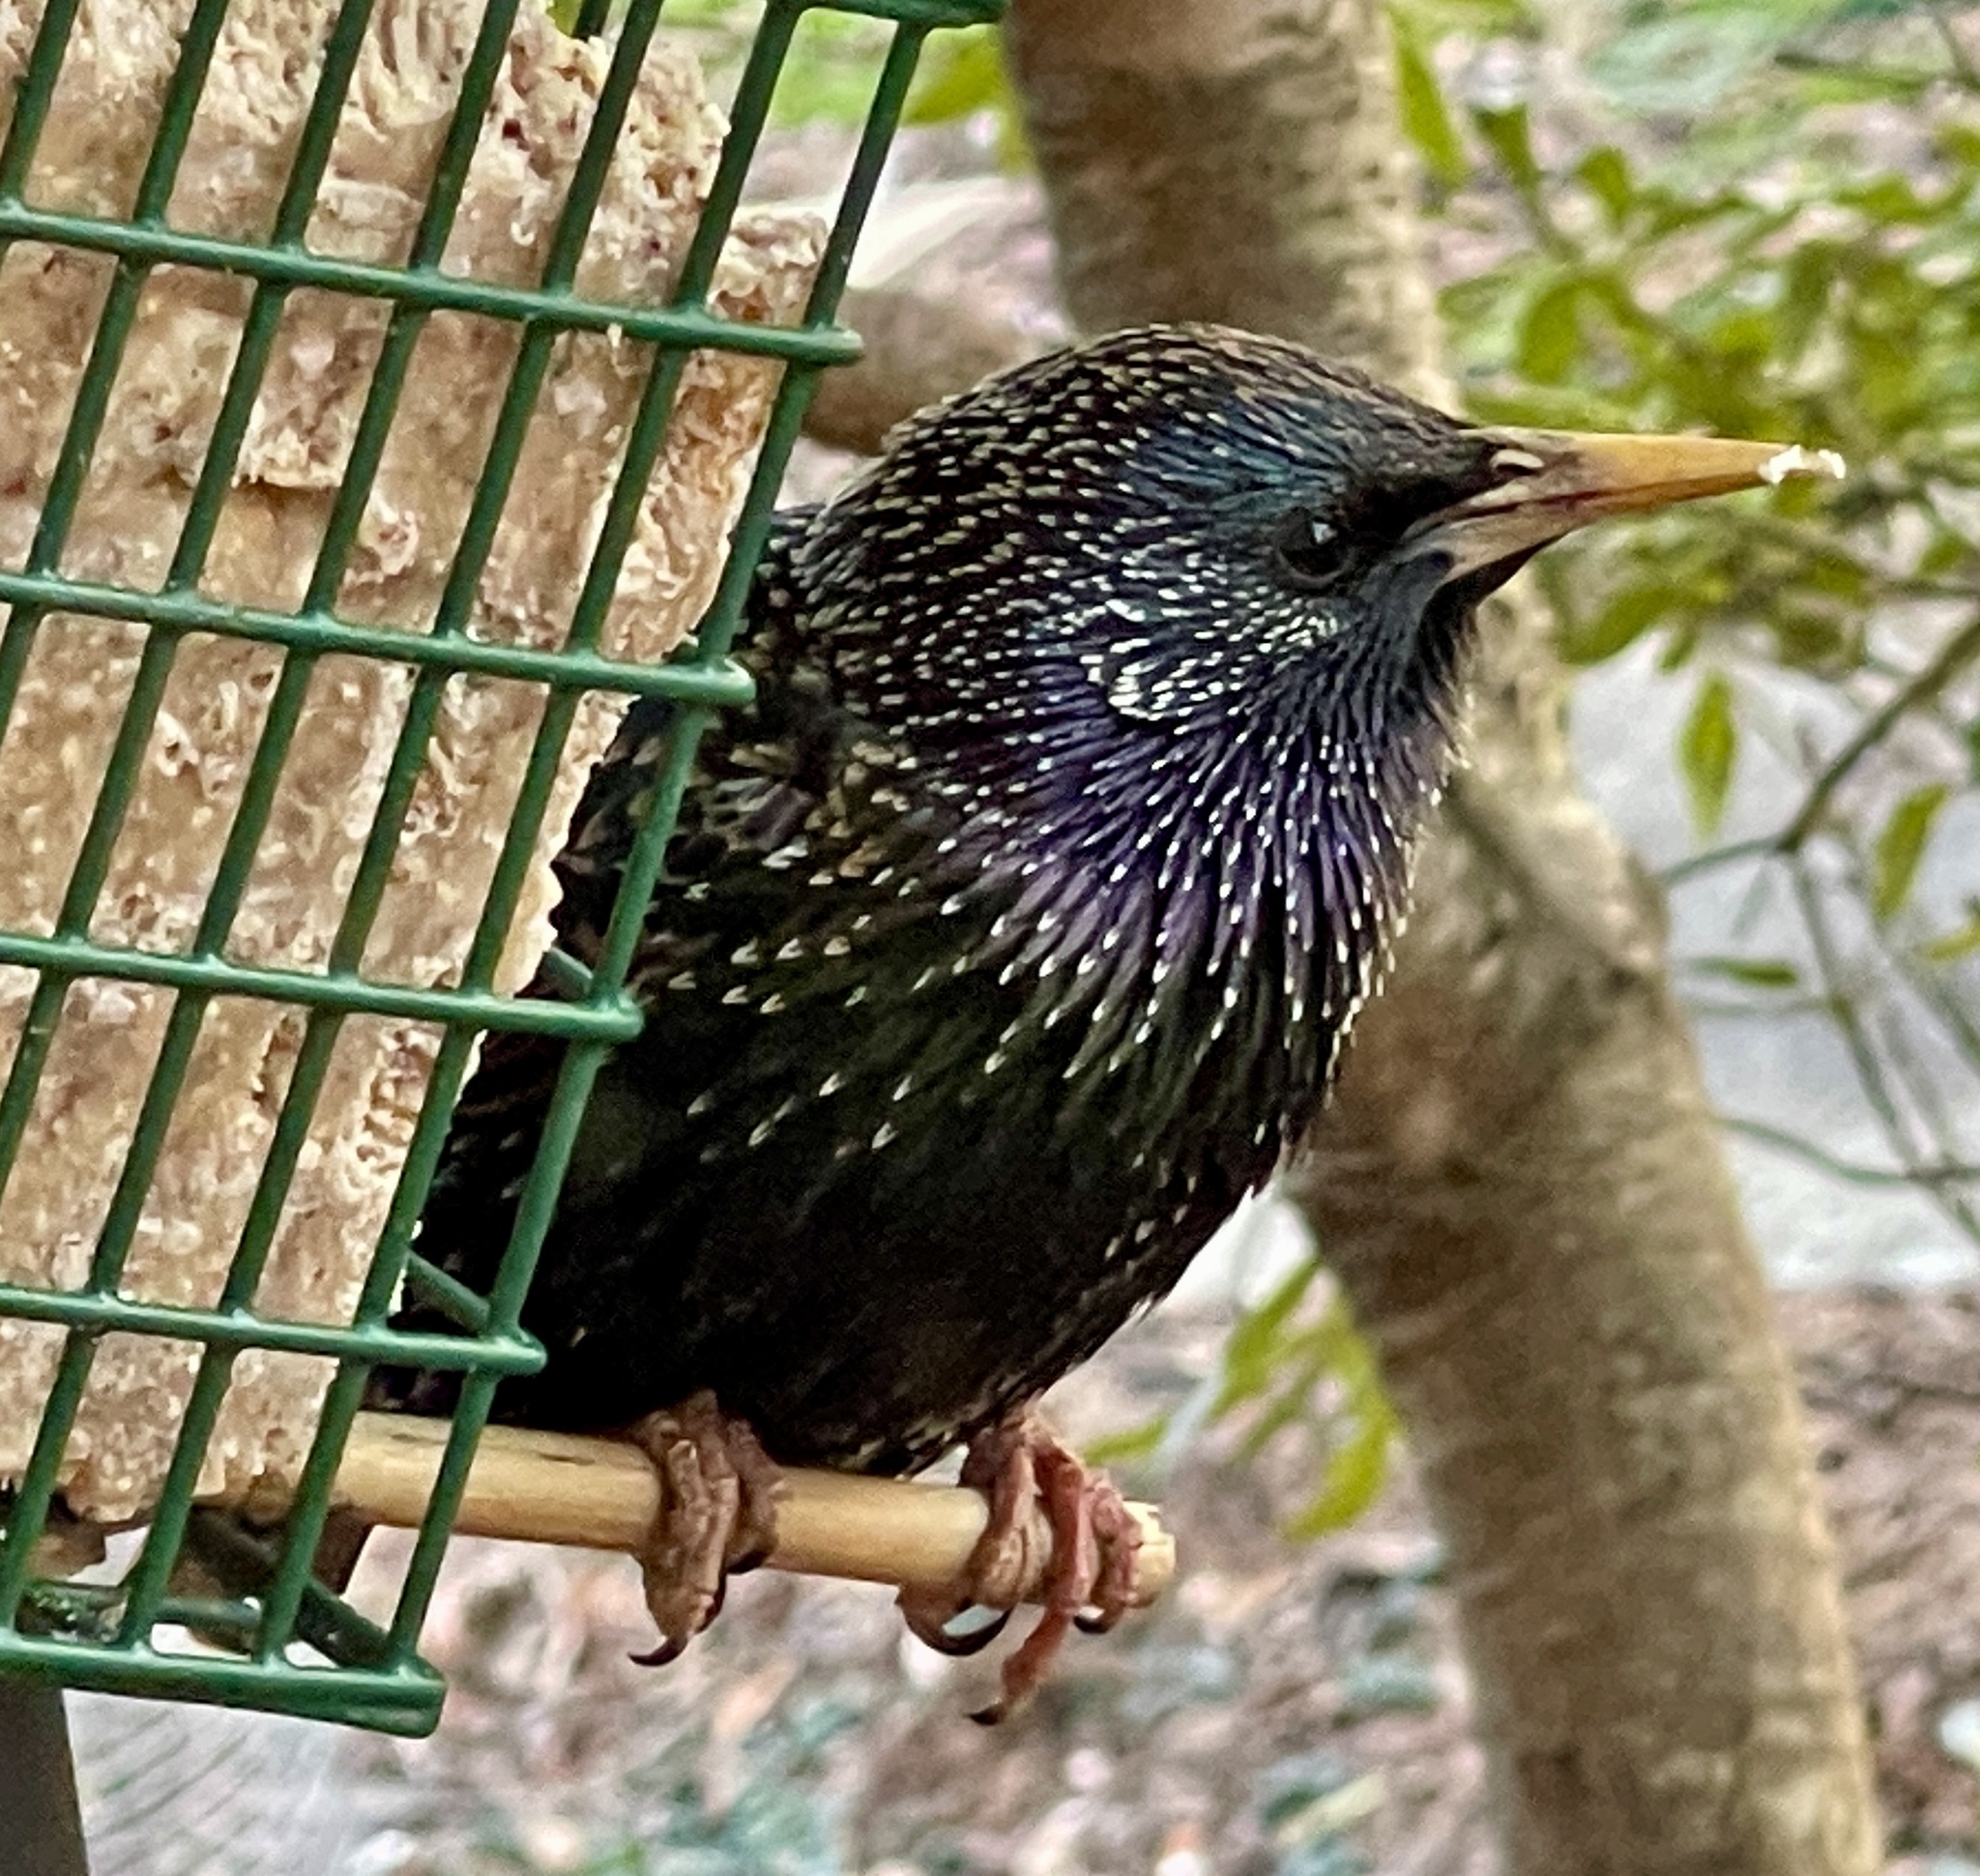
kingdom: Animalia
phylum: Chordata
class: Aves
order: Passeriformes
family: Sturnidae
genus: Sturnus
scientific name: Sturnus vulgaris
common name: Common starling
